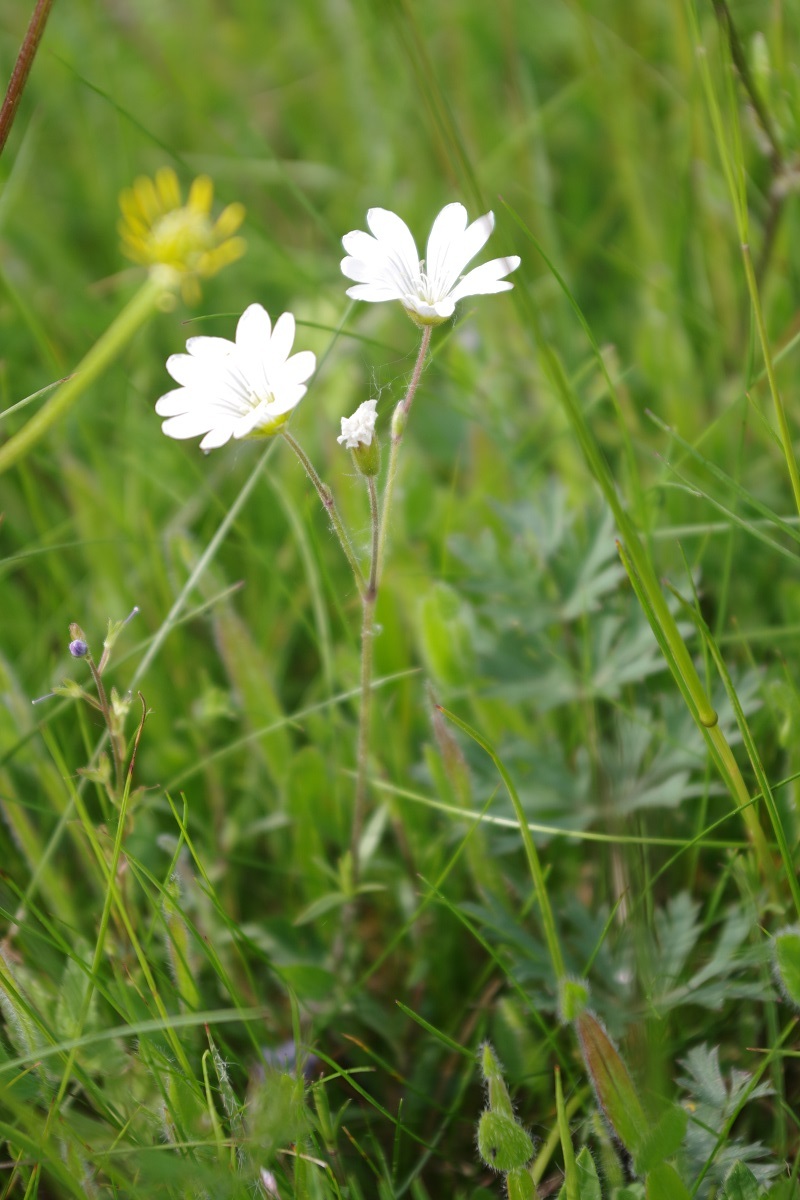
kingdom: Plantae
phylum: Tracheophyta
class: Magnoliopsida
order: Caryophyllales
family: Caryophyllaceae
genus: Cerastium
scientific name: Cerastium arvense
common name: Field mouse-ear
